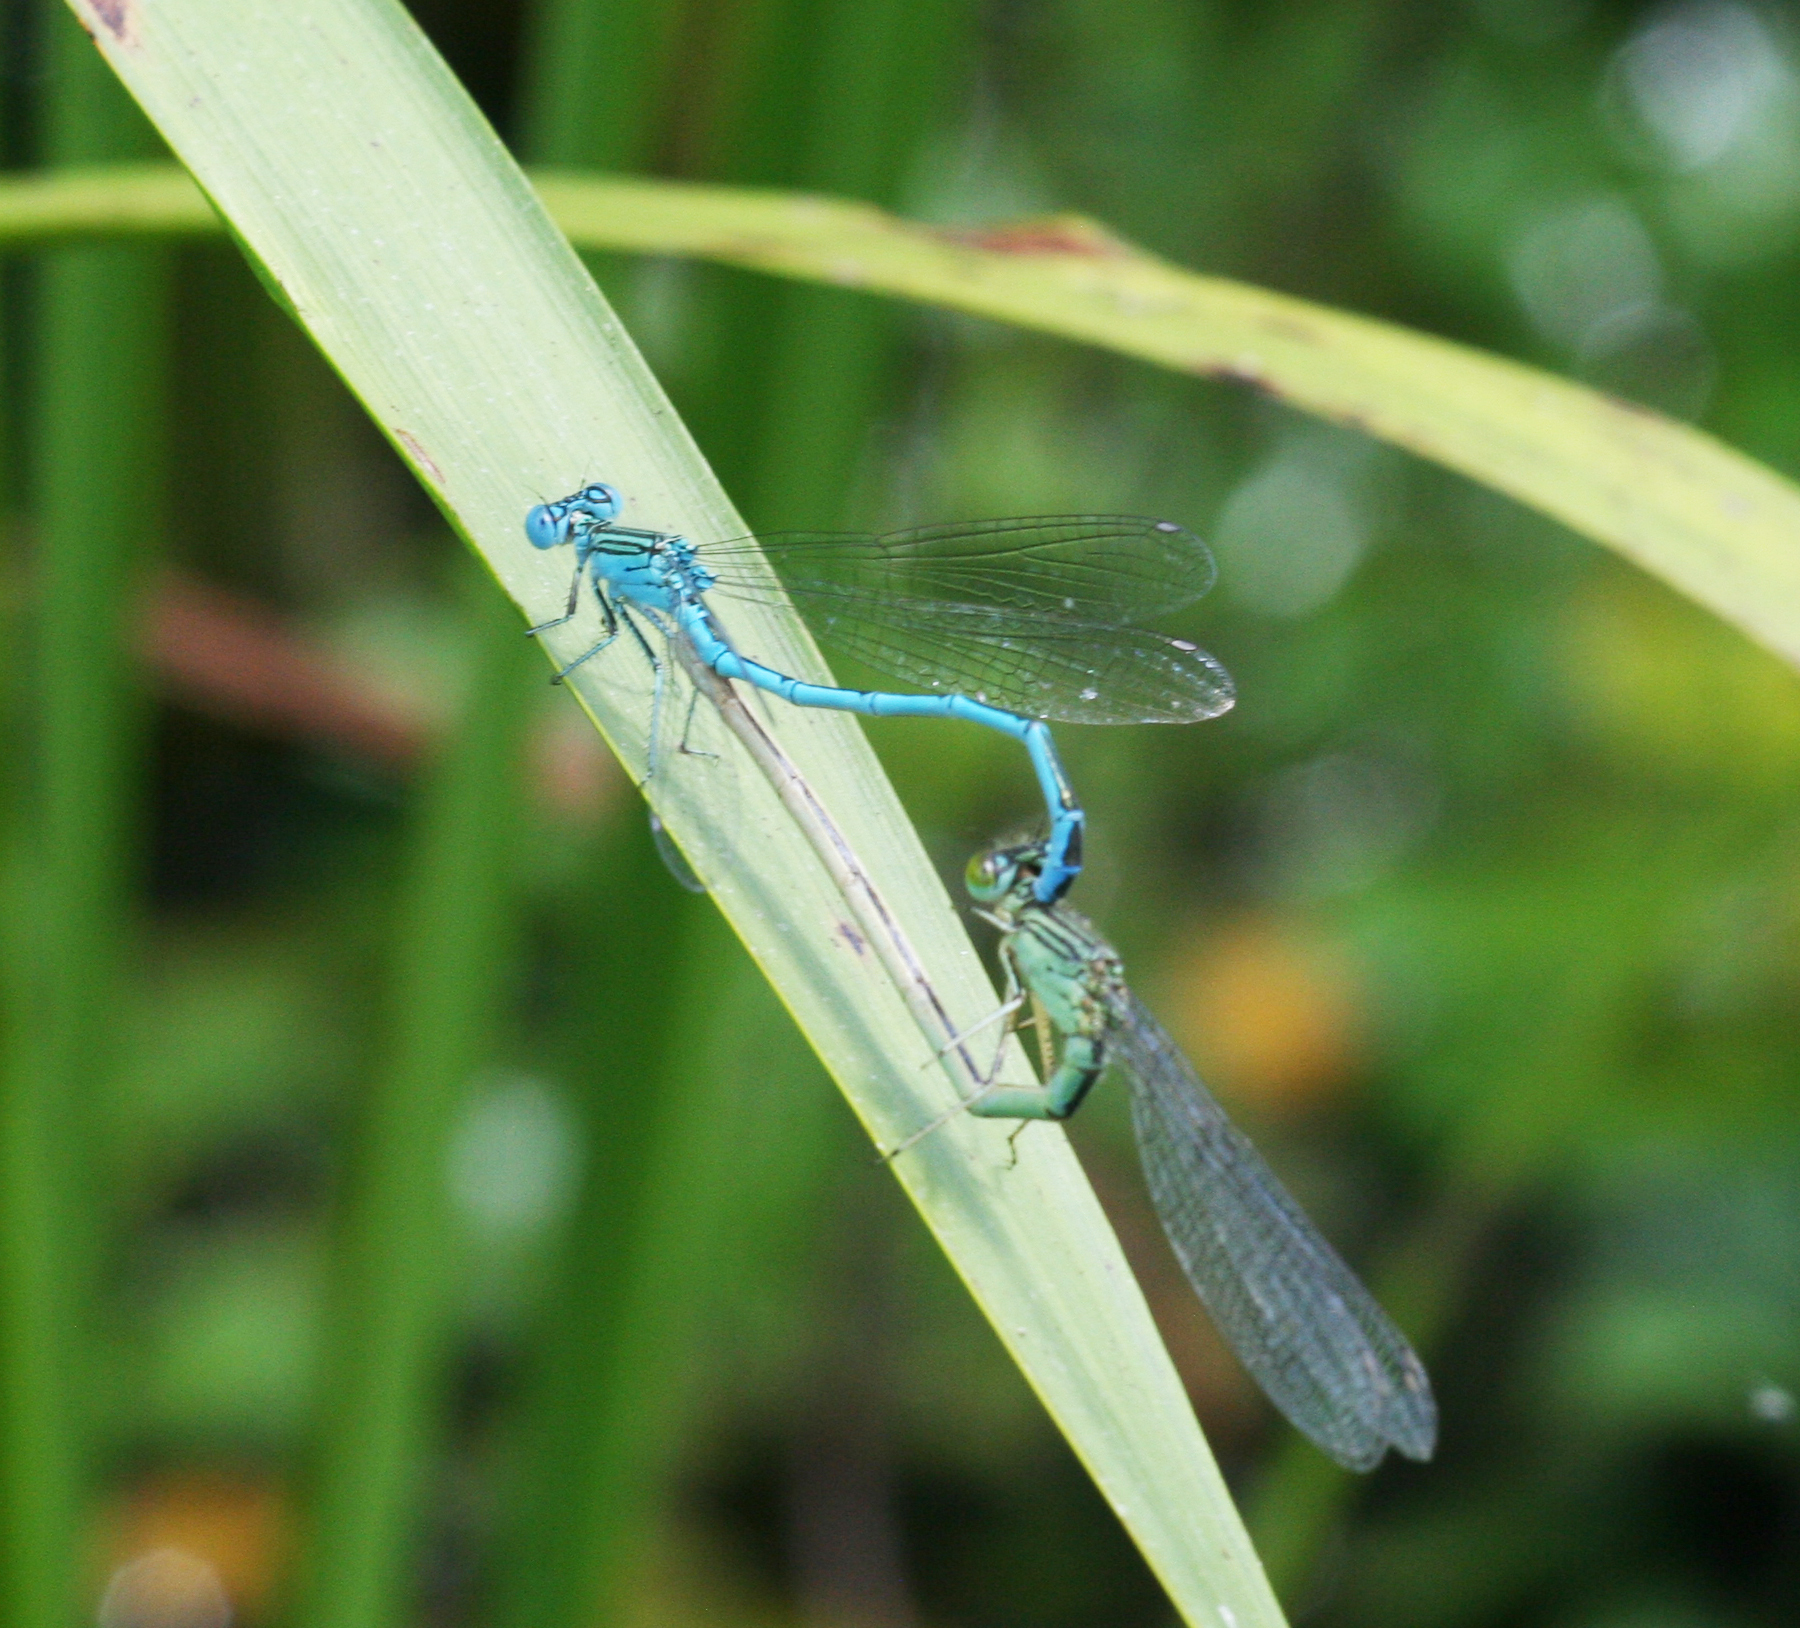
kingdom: Animalia
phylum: Arthropoda
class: Insecta
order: Odonata
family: Coenagrionidae
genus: Paracercion
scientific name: Paracercion plagiosum
